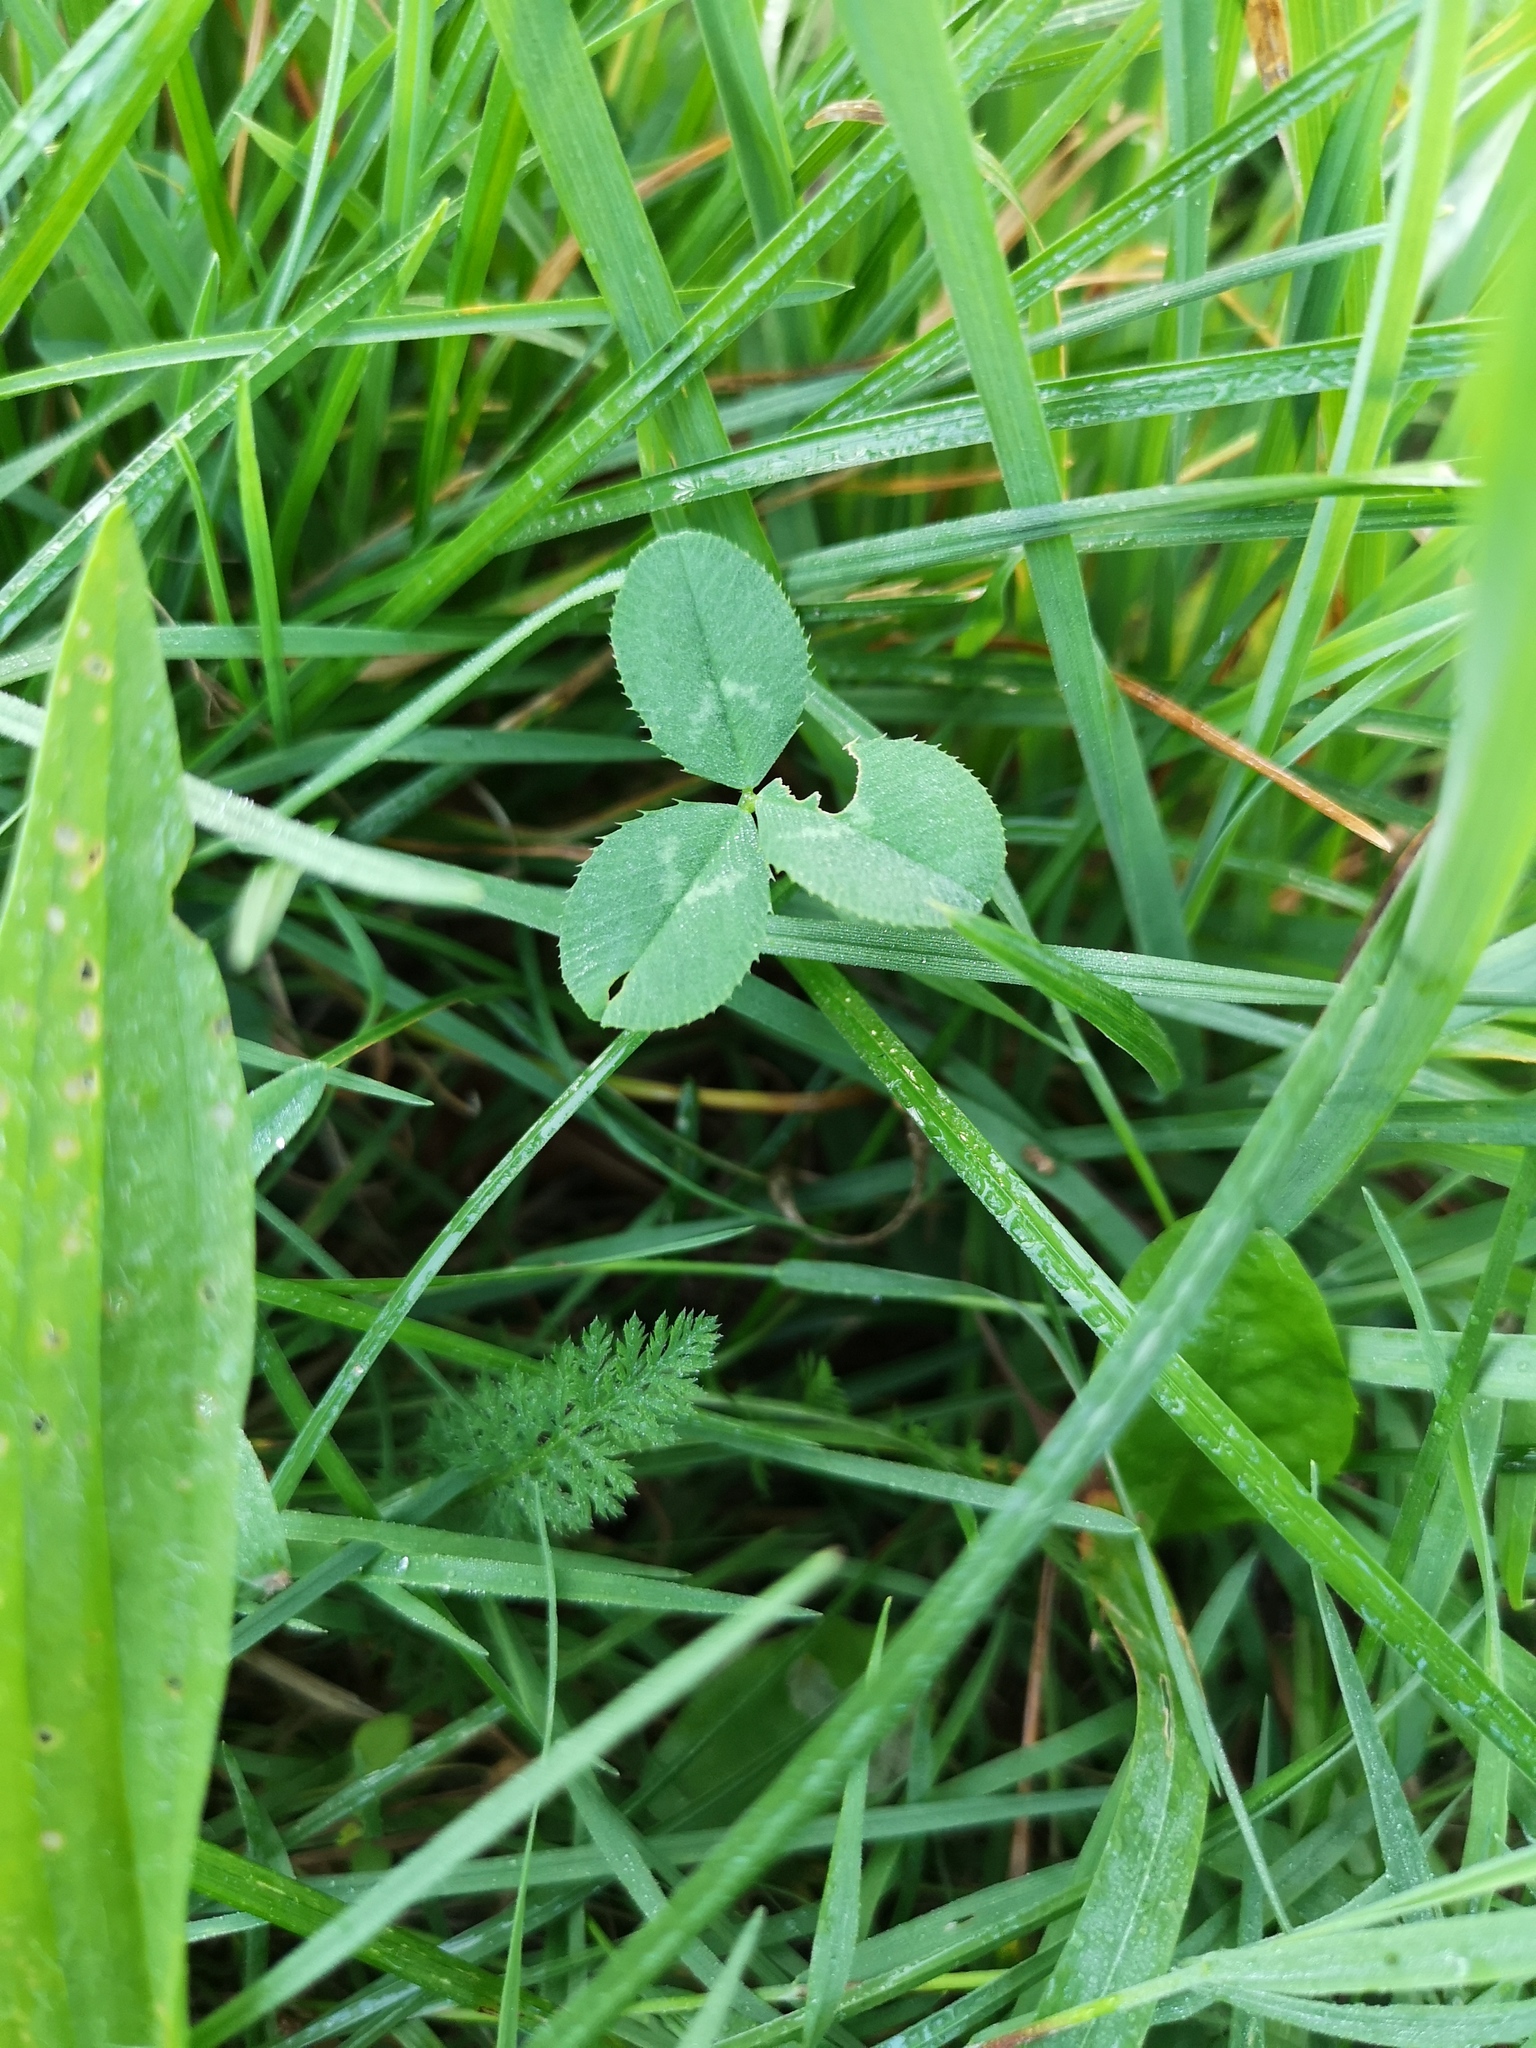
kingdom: Plantae
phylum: Tracheophyta
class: Magnoliopsida
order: Fabales
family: Fabaceae
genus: Trifolium
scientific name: Trifolium repens
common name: White clover
